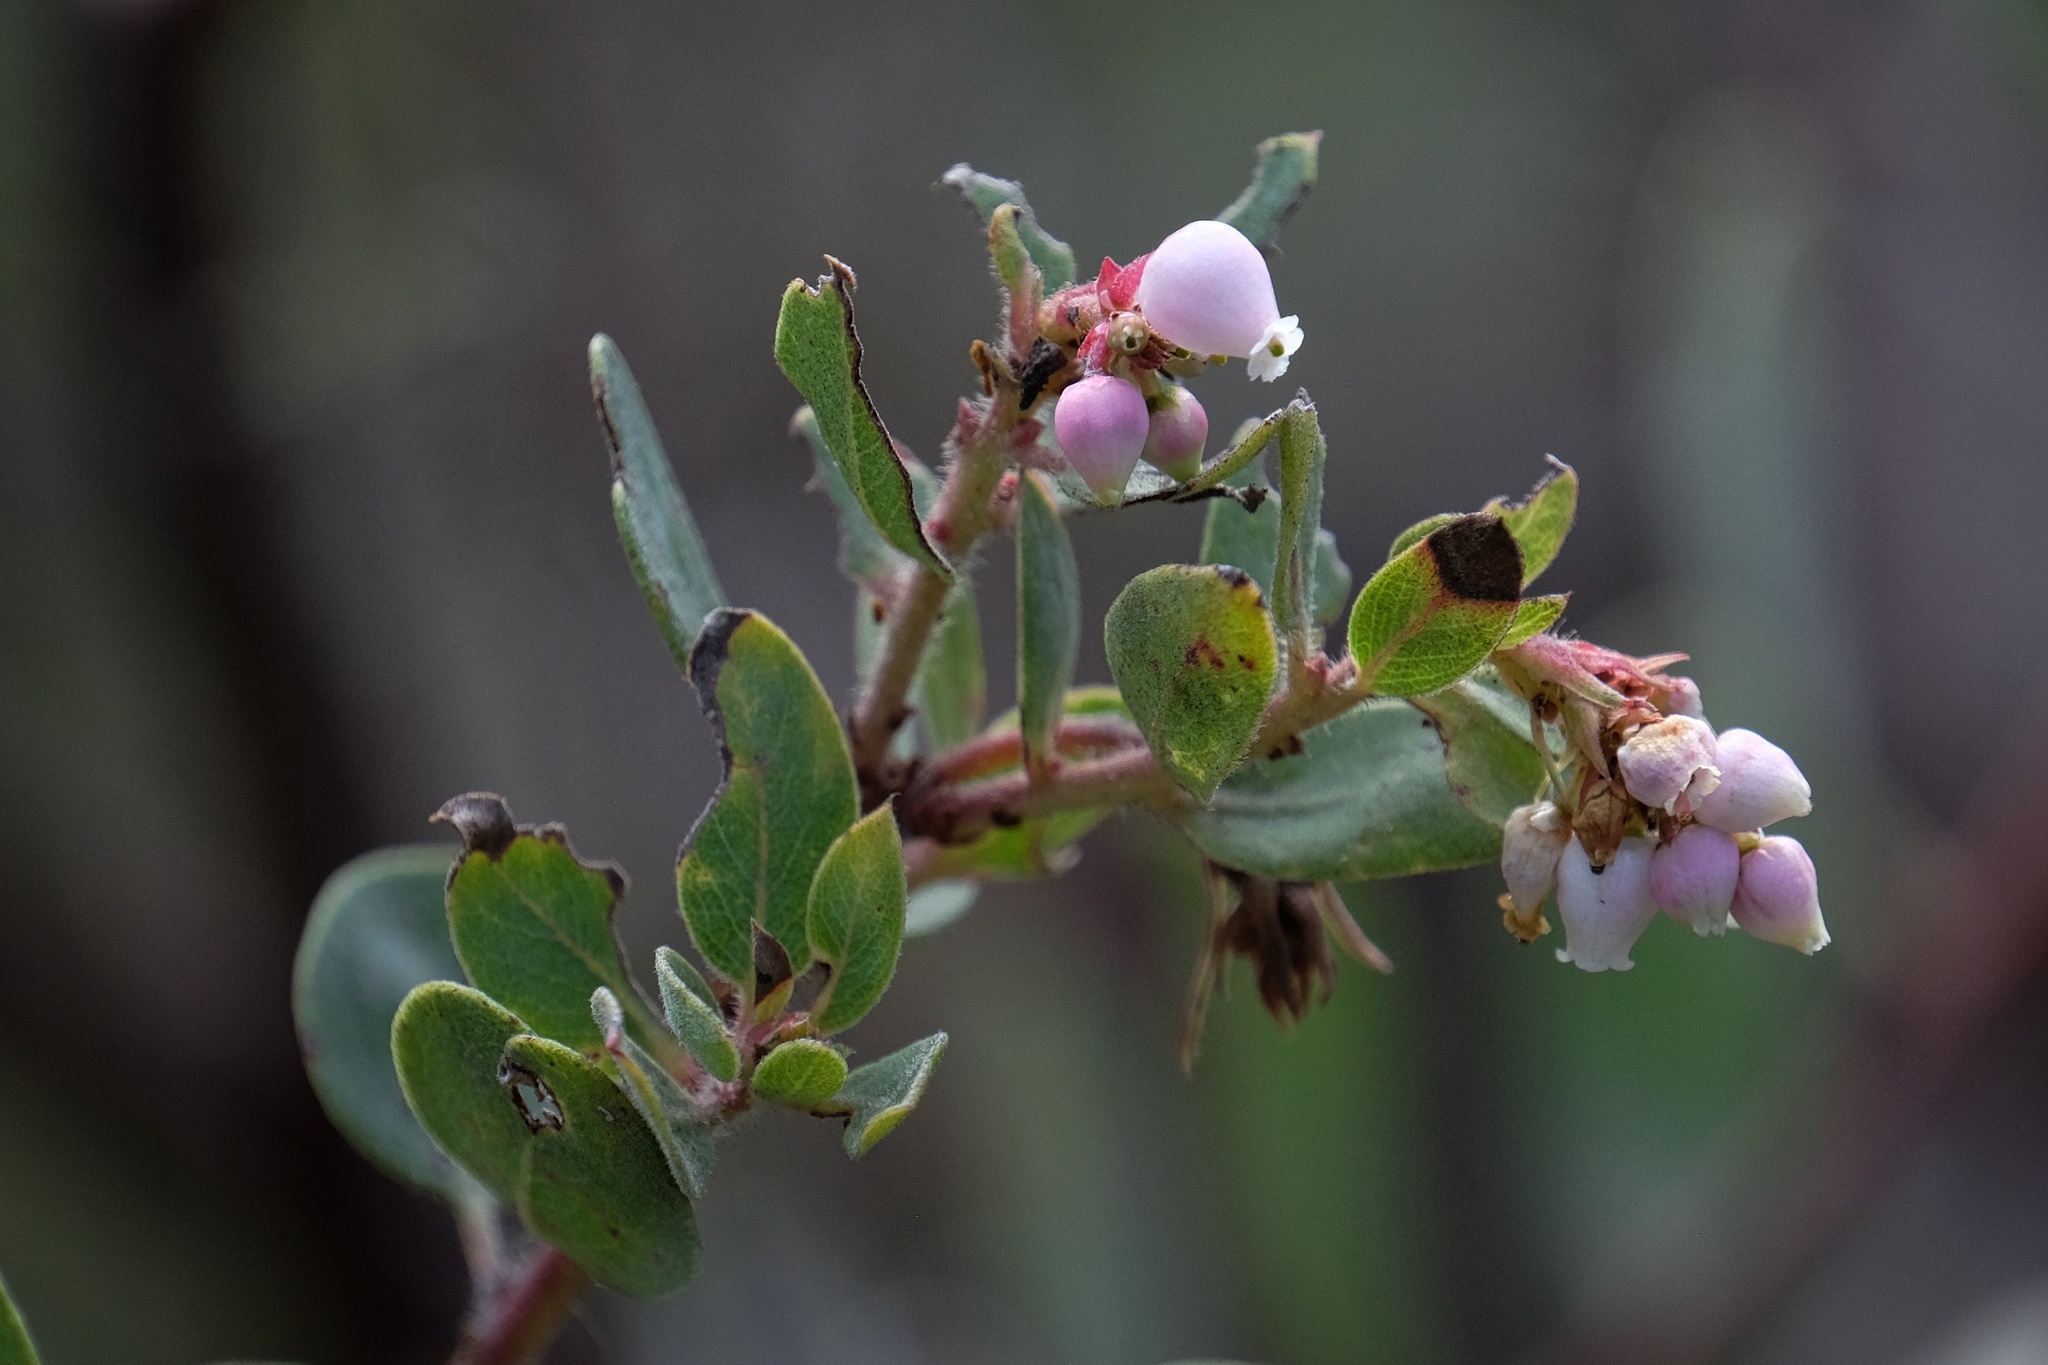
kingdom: Plantae
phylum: Tracheophyta
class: Magnoliopsida
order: Ericales
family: Ericaceae
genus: Arctostaphylos
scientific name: Arctostaphylos glandulosa
